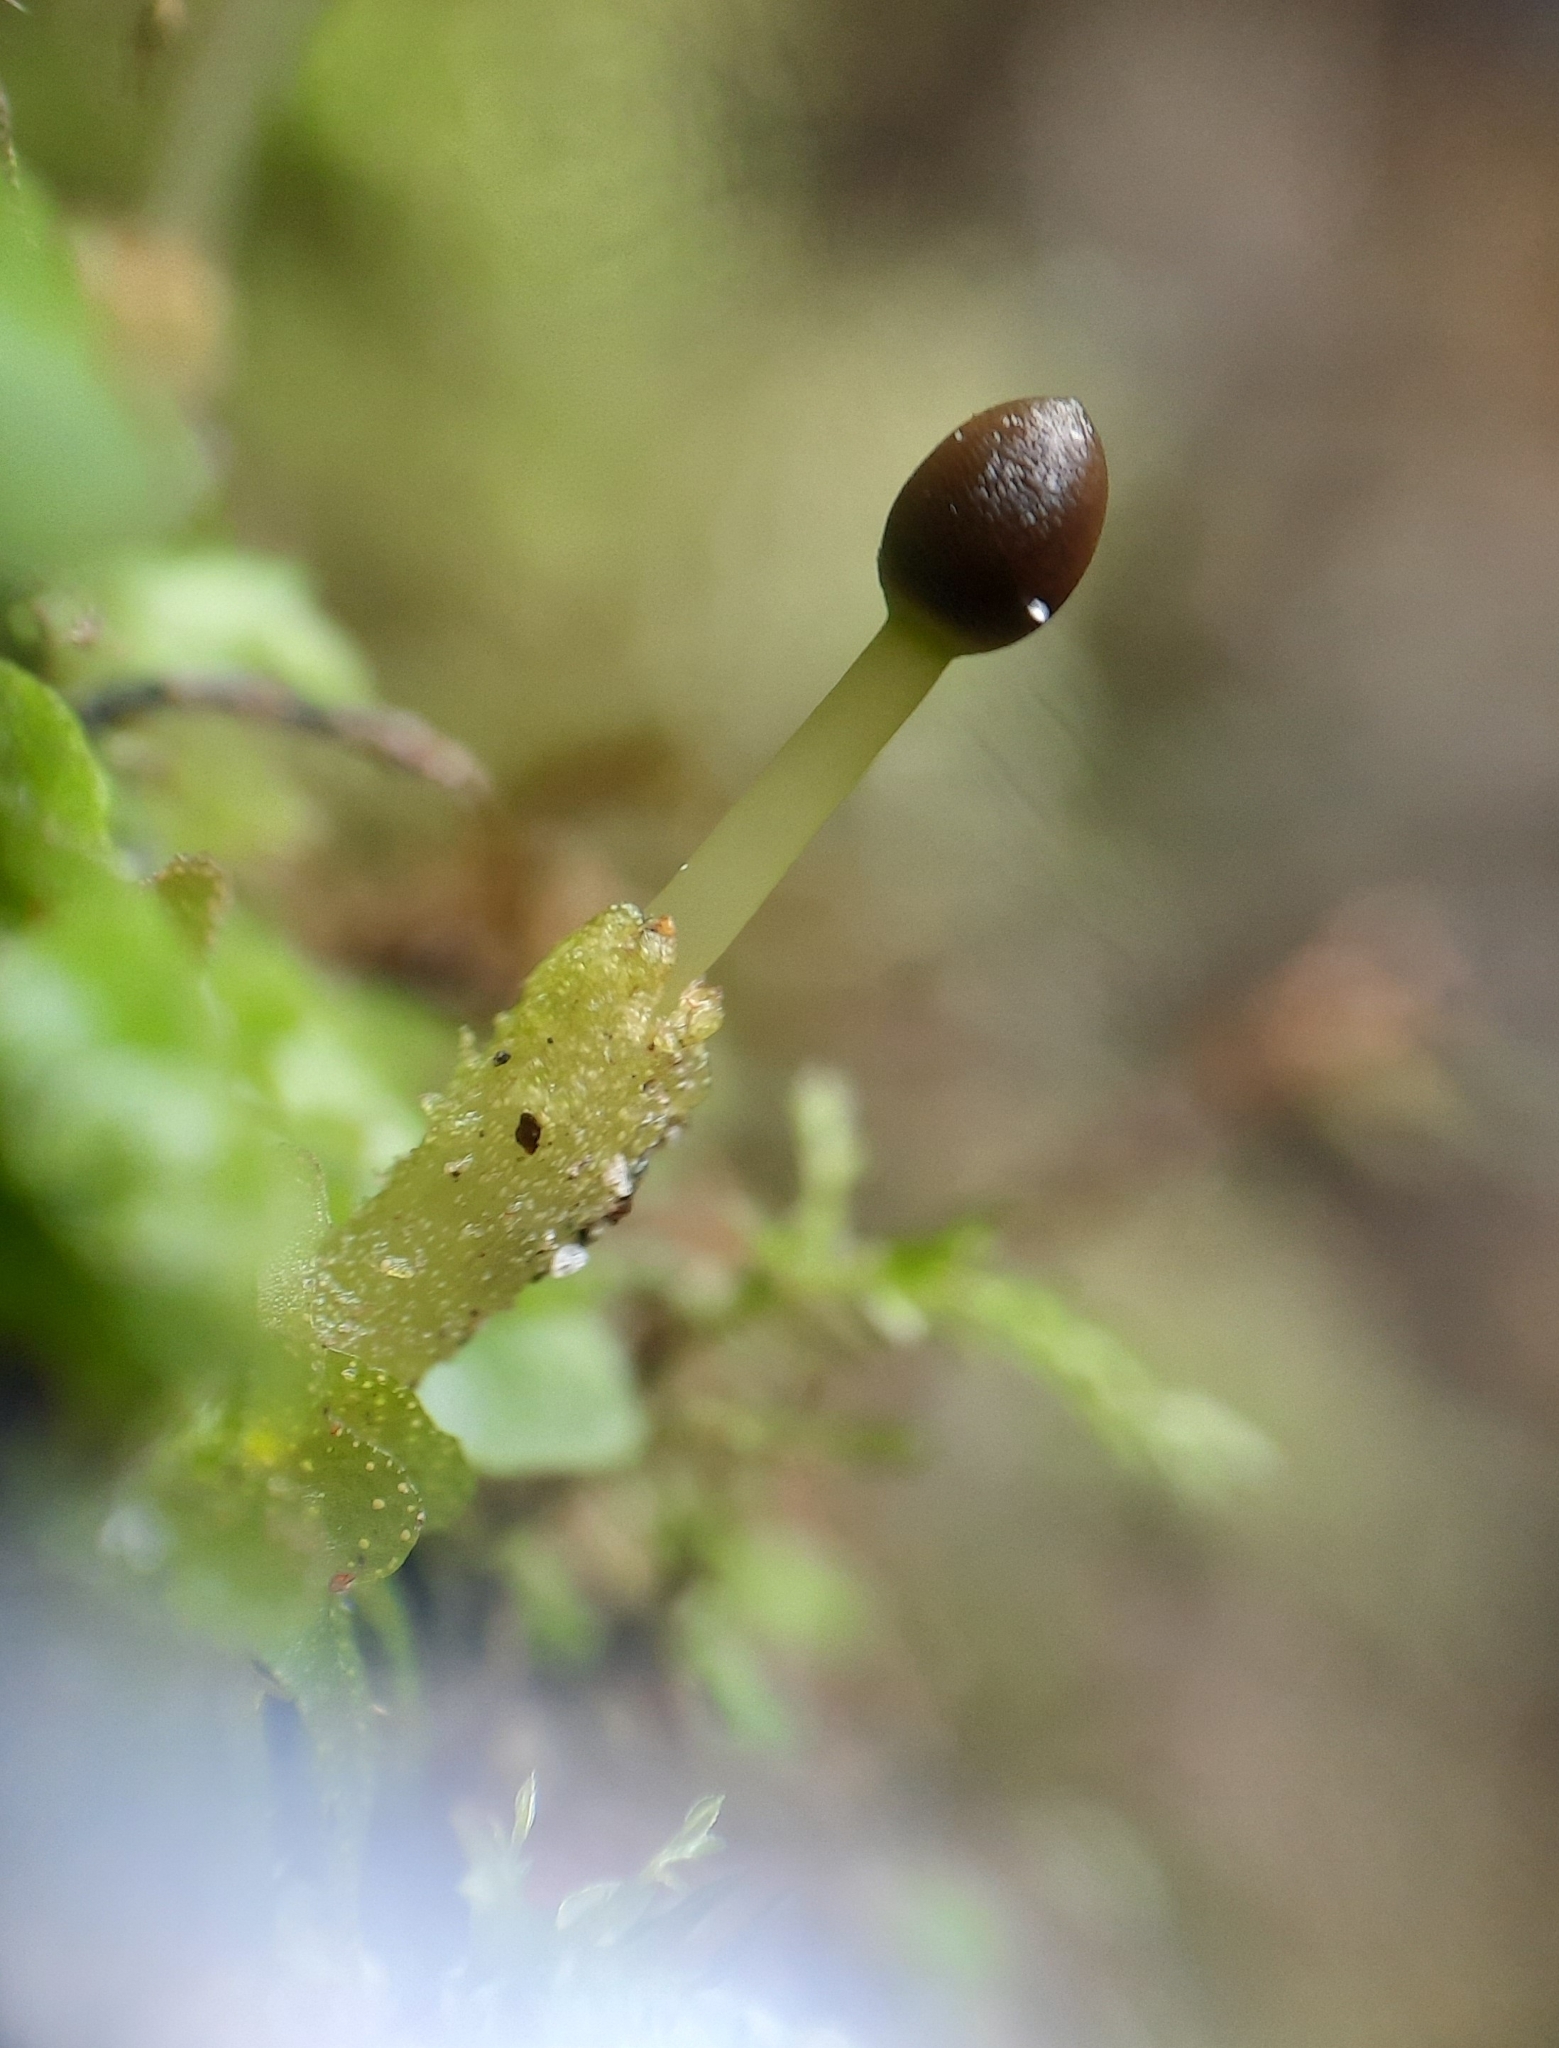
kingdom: Plantae
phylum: Marchantiophyta
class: Haplomitriopsida
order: Treubiales
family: Treubiaceae
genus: Treubia
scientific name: Treubia lacunosa
